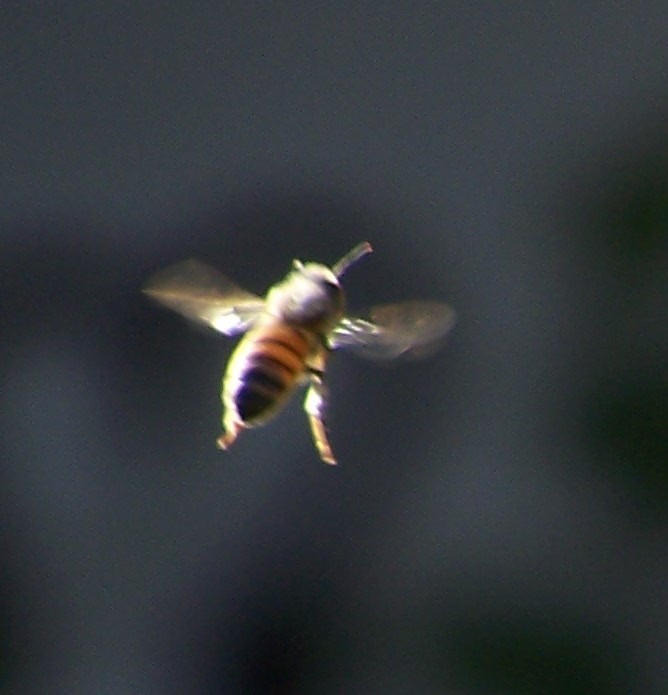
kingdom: Animalia
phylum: Arthropoda
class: Insecta
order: Hymenoptera
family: Apidae
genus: Apis
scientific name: Apis mellifera
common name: Honey bee
